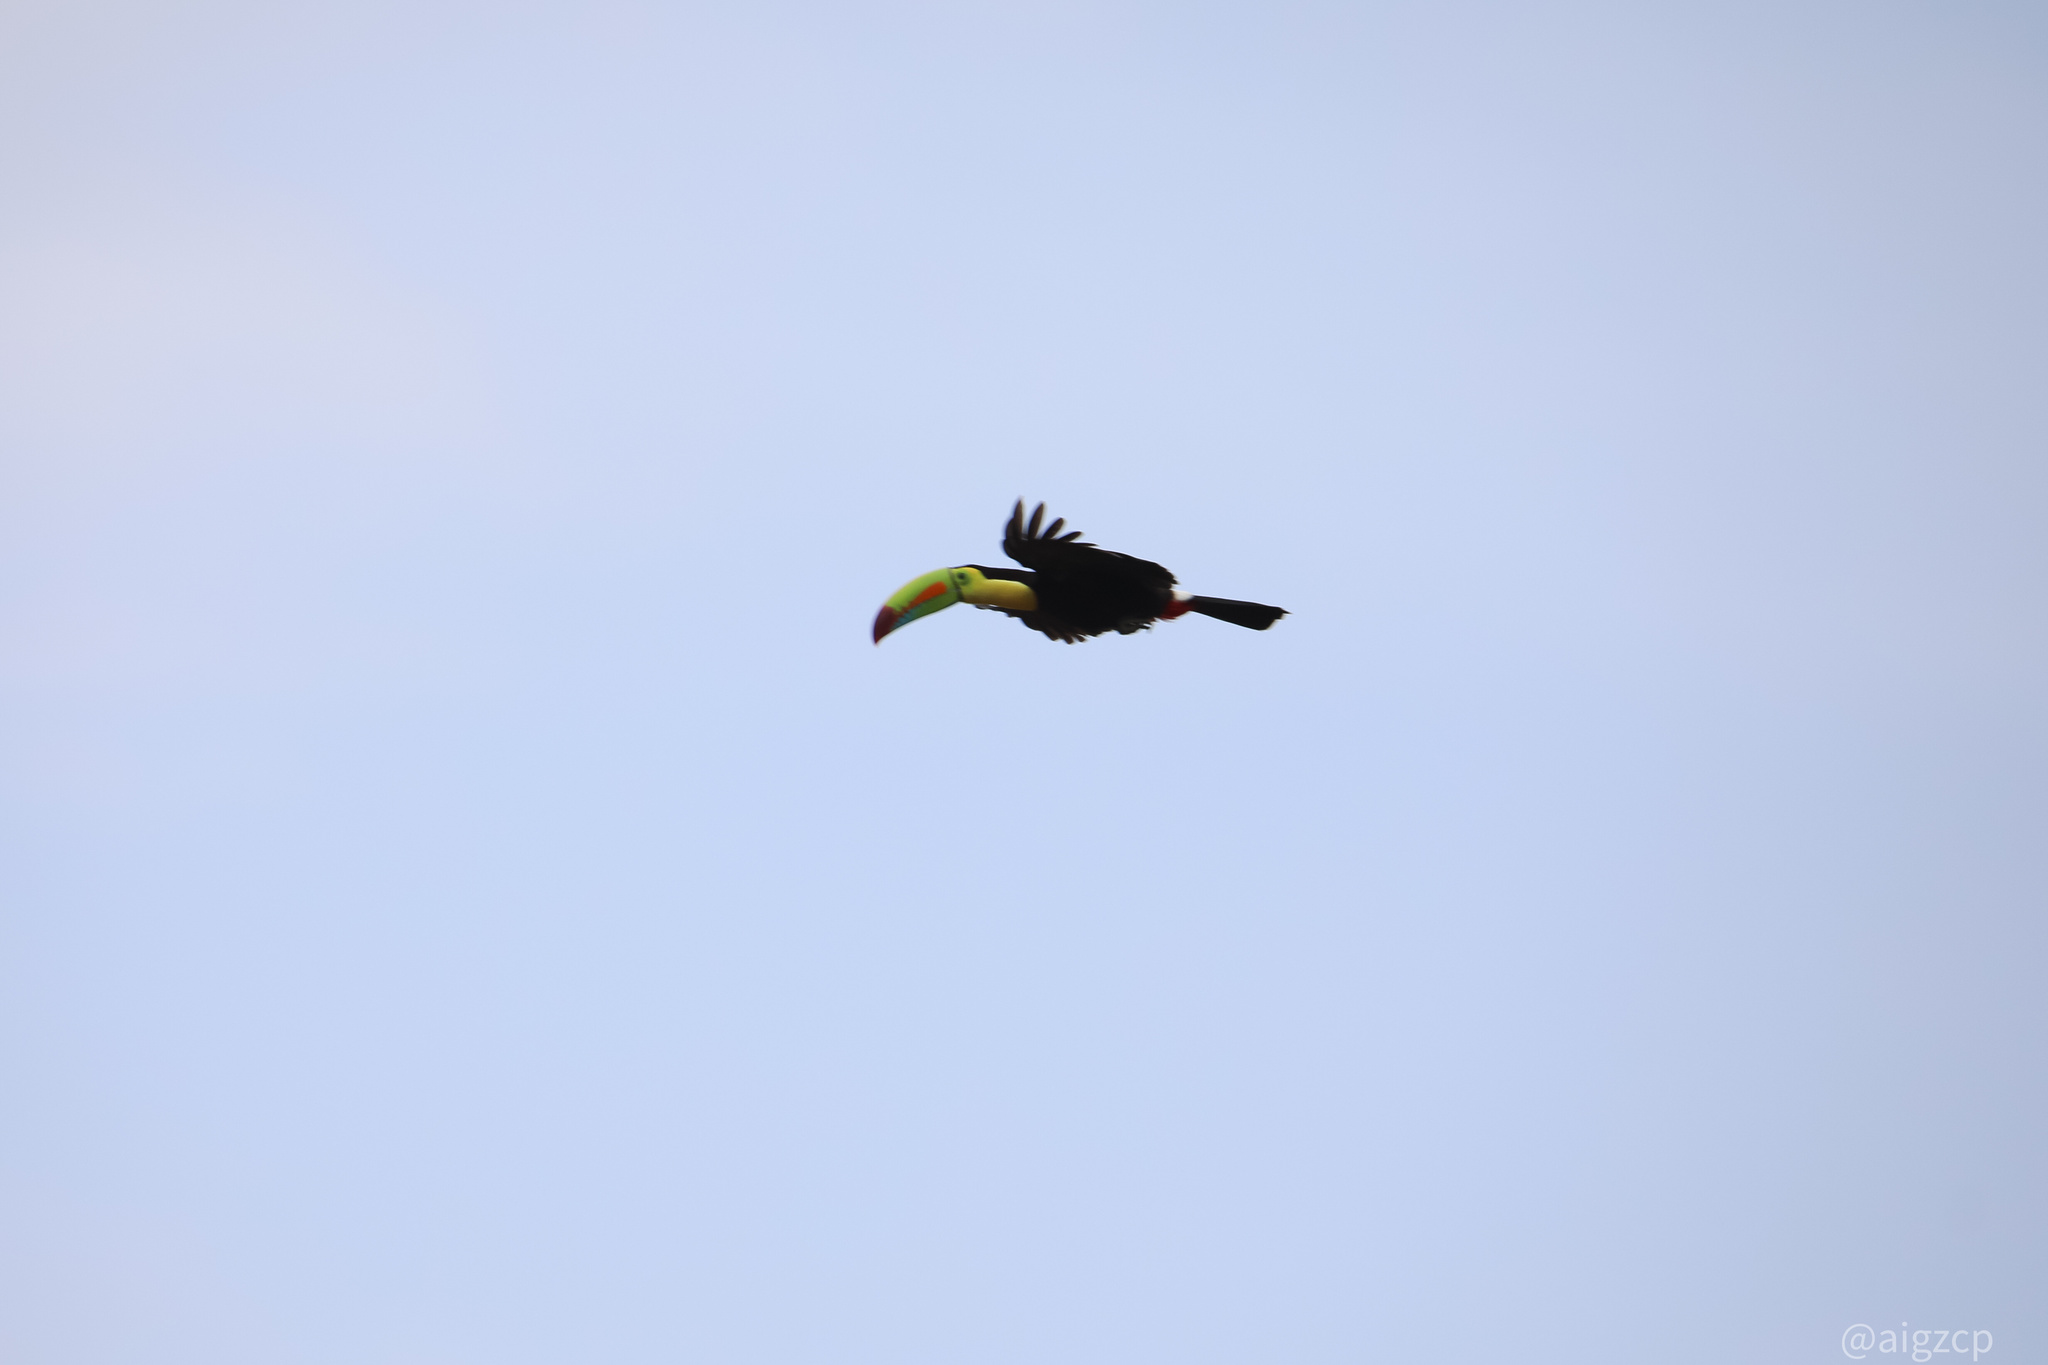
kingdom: Animalia
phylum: Chordata
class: Aves
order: Piciformes
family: Ramphastidae
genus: Ramphastos
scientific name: Ramphastos sulfuratus
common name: Keel-billed toucan
